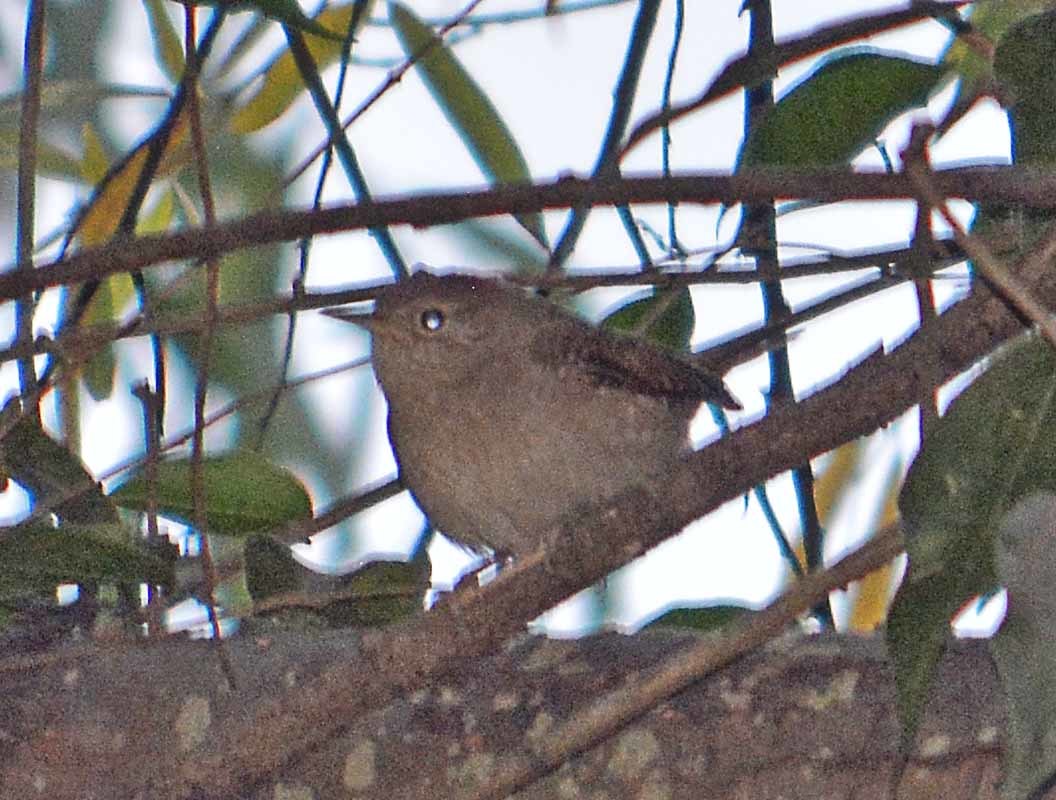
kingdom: Animalia
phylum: Chordata
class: Aves
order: Passeriformes
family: Troglodytidae
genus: Troglodytes
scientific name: Troglodytes aedon
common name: House wren
